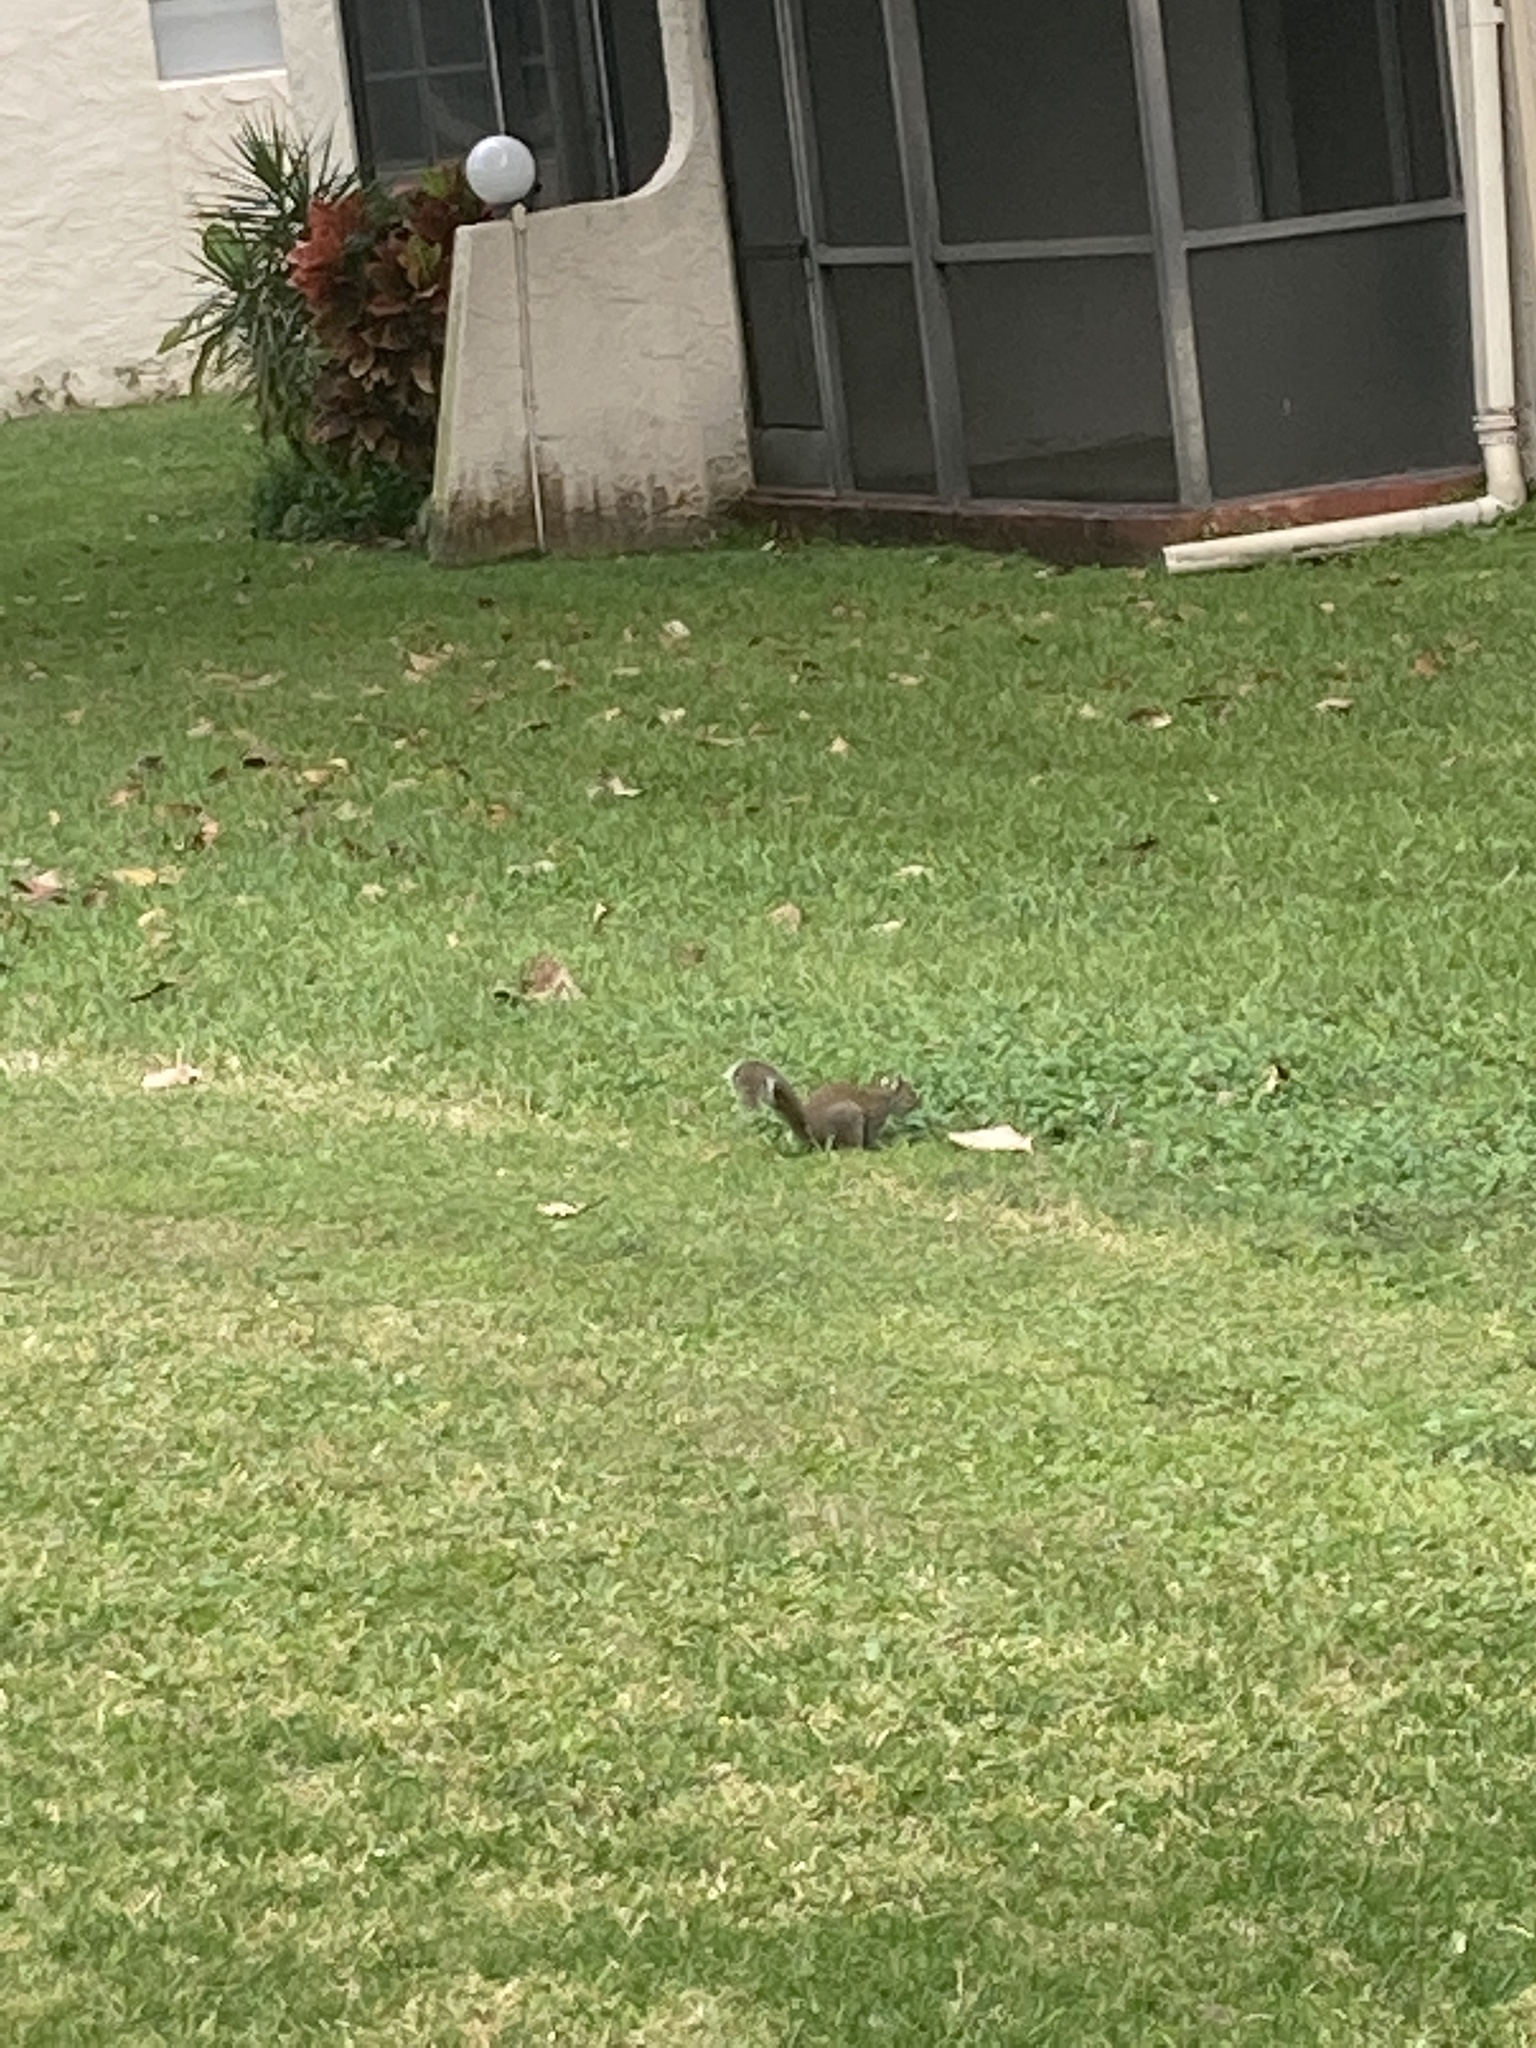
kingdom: Animalia
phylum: Chordata
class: Mammalia
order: Rodentia
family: Sciuridae
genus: Sciurus
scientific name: Sciurus carolinensis
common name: Eastern gray squirrel
